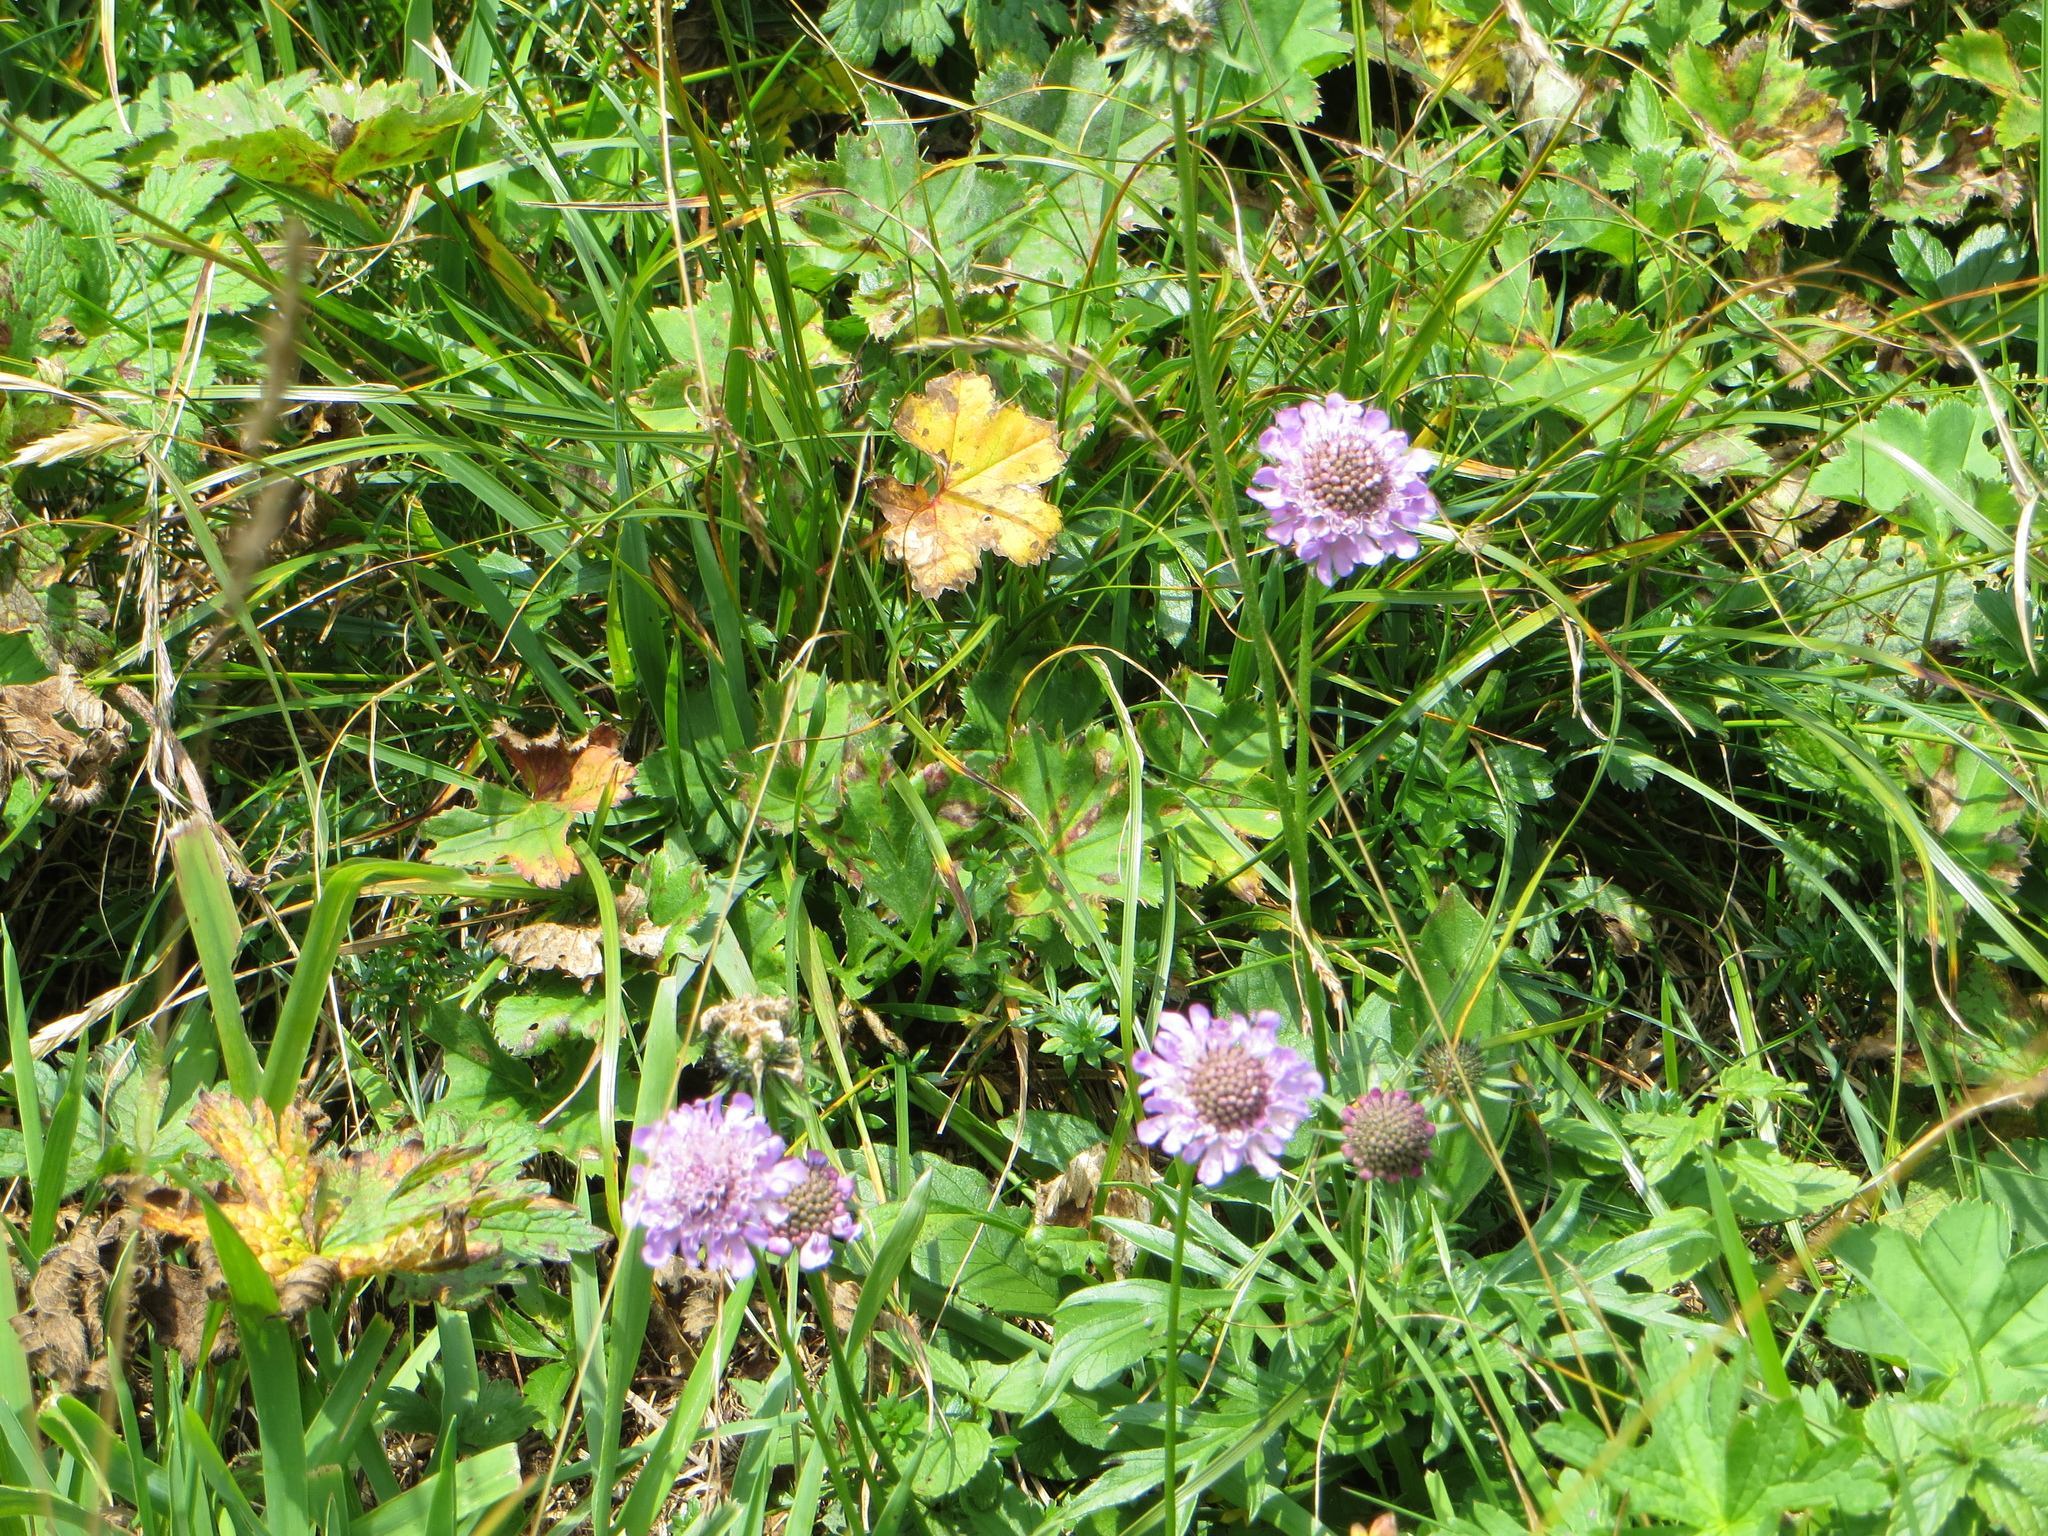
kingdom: Plantae
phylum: Tracheophyta
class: Magnoliopsida
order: Dipsacales
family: Caprifoliaceae
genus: Scabiosa
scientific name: Scabiosa lucida
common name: Shining scabious
